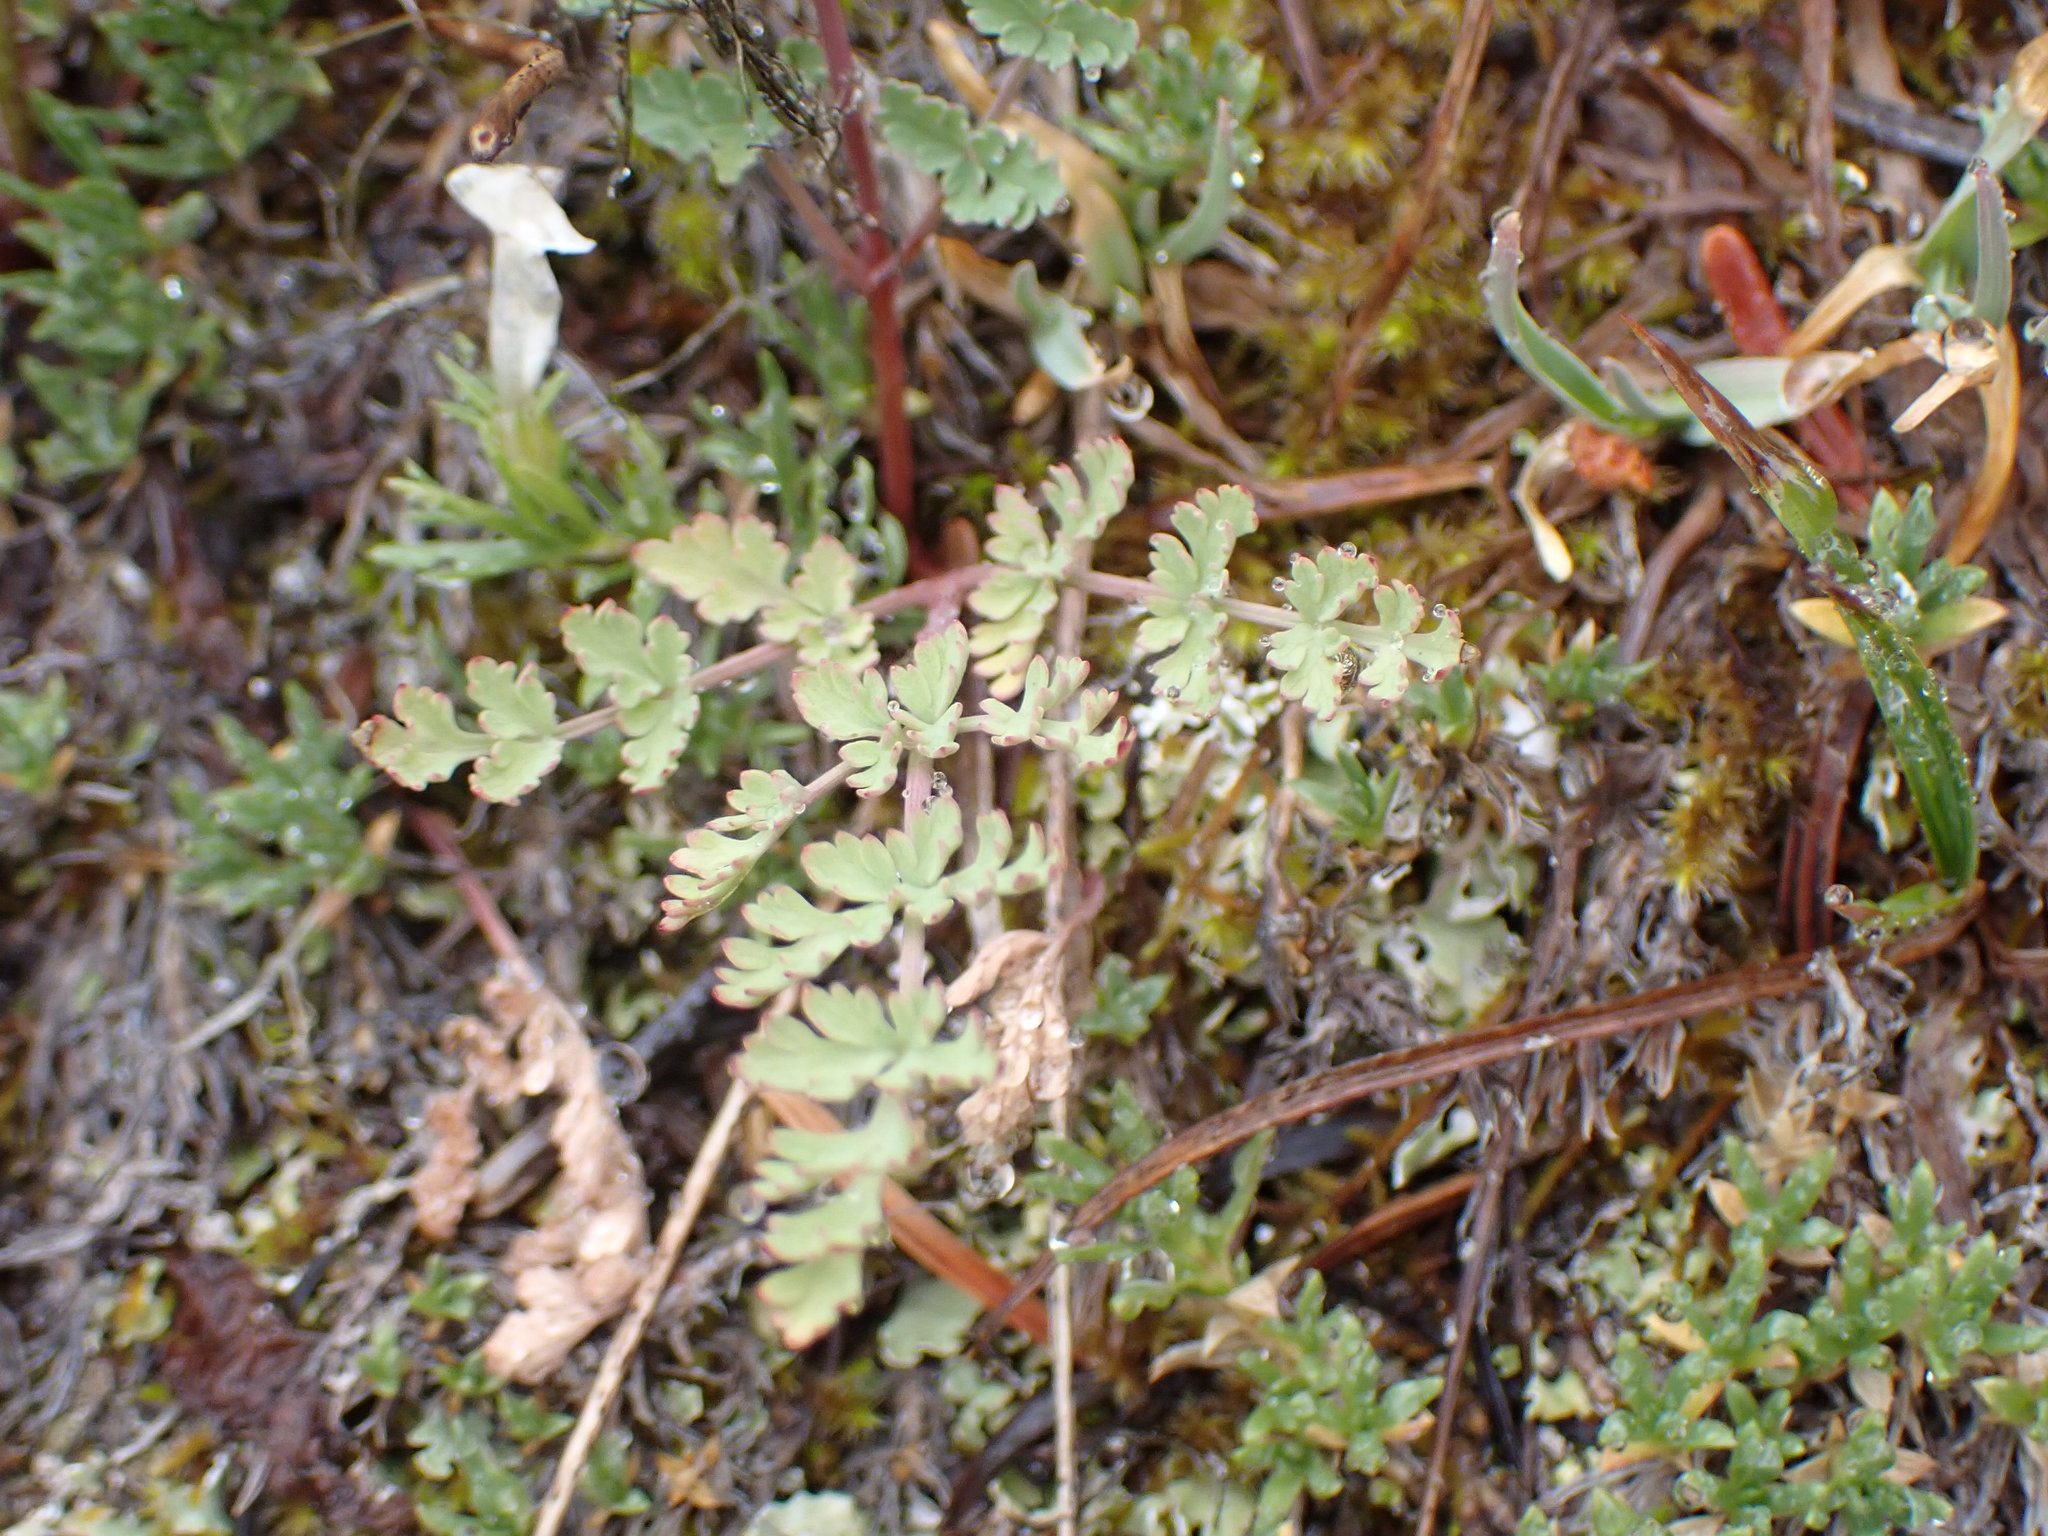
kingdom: Plantae
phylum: Tracheophyta
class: Magnoliopsida
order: Apiales
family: Apiaceae
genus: Lomatium
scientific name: Lomatium martindalei
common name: Cascade desert-parsley
